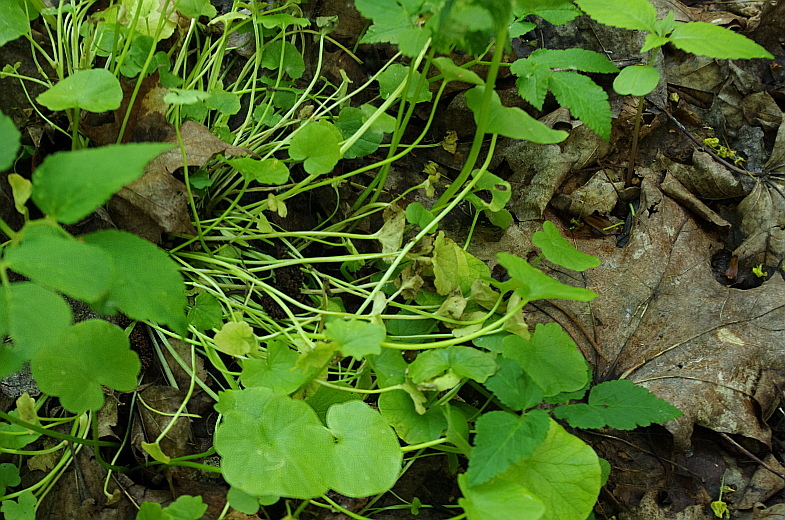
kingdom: Plantae
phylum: Tracheophyta
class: Magnoliopsida
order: Ranunculales
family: Ranunculaceae
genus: Ficaria
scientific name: Ficaria verna
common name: Lesser celandine
